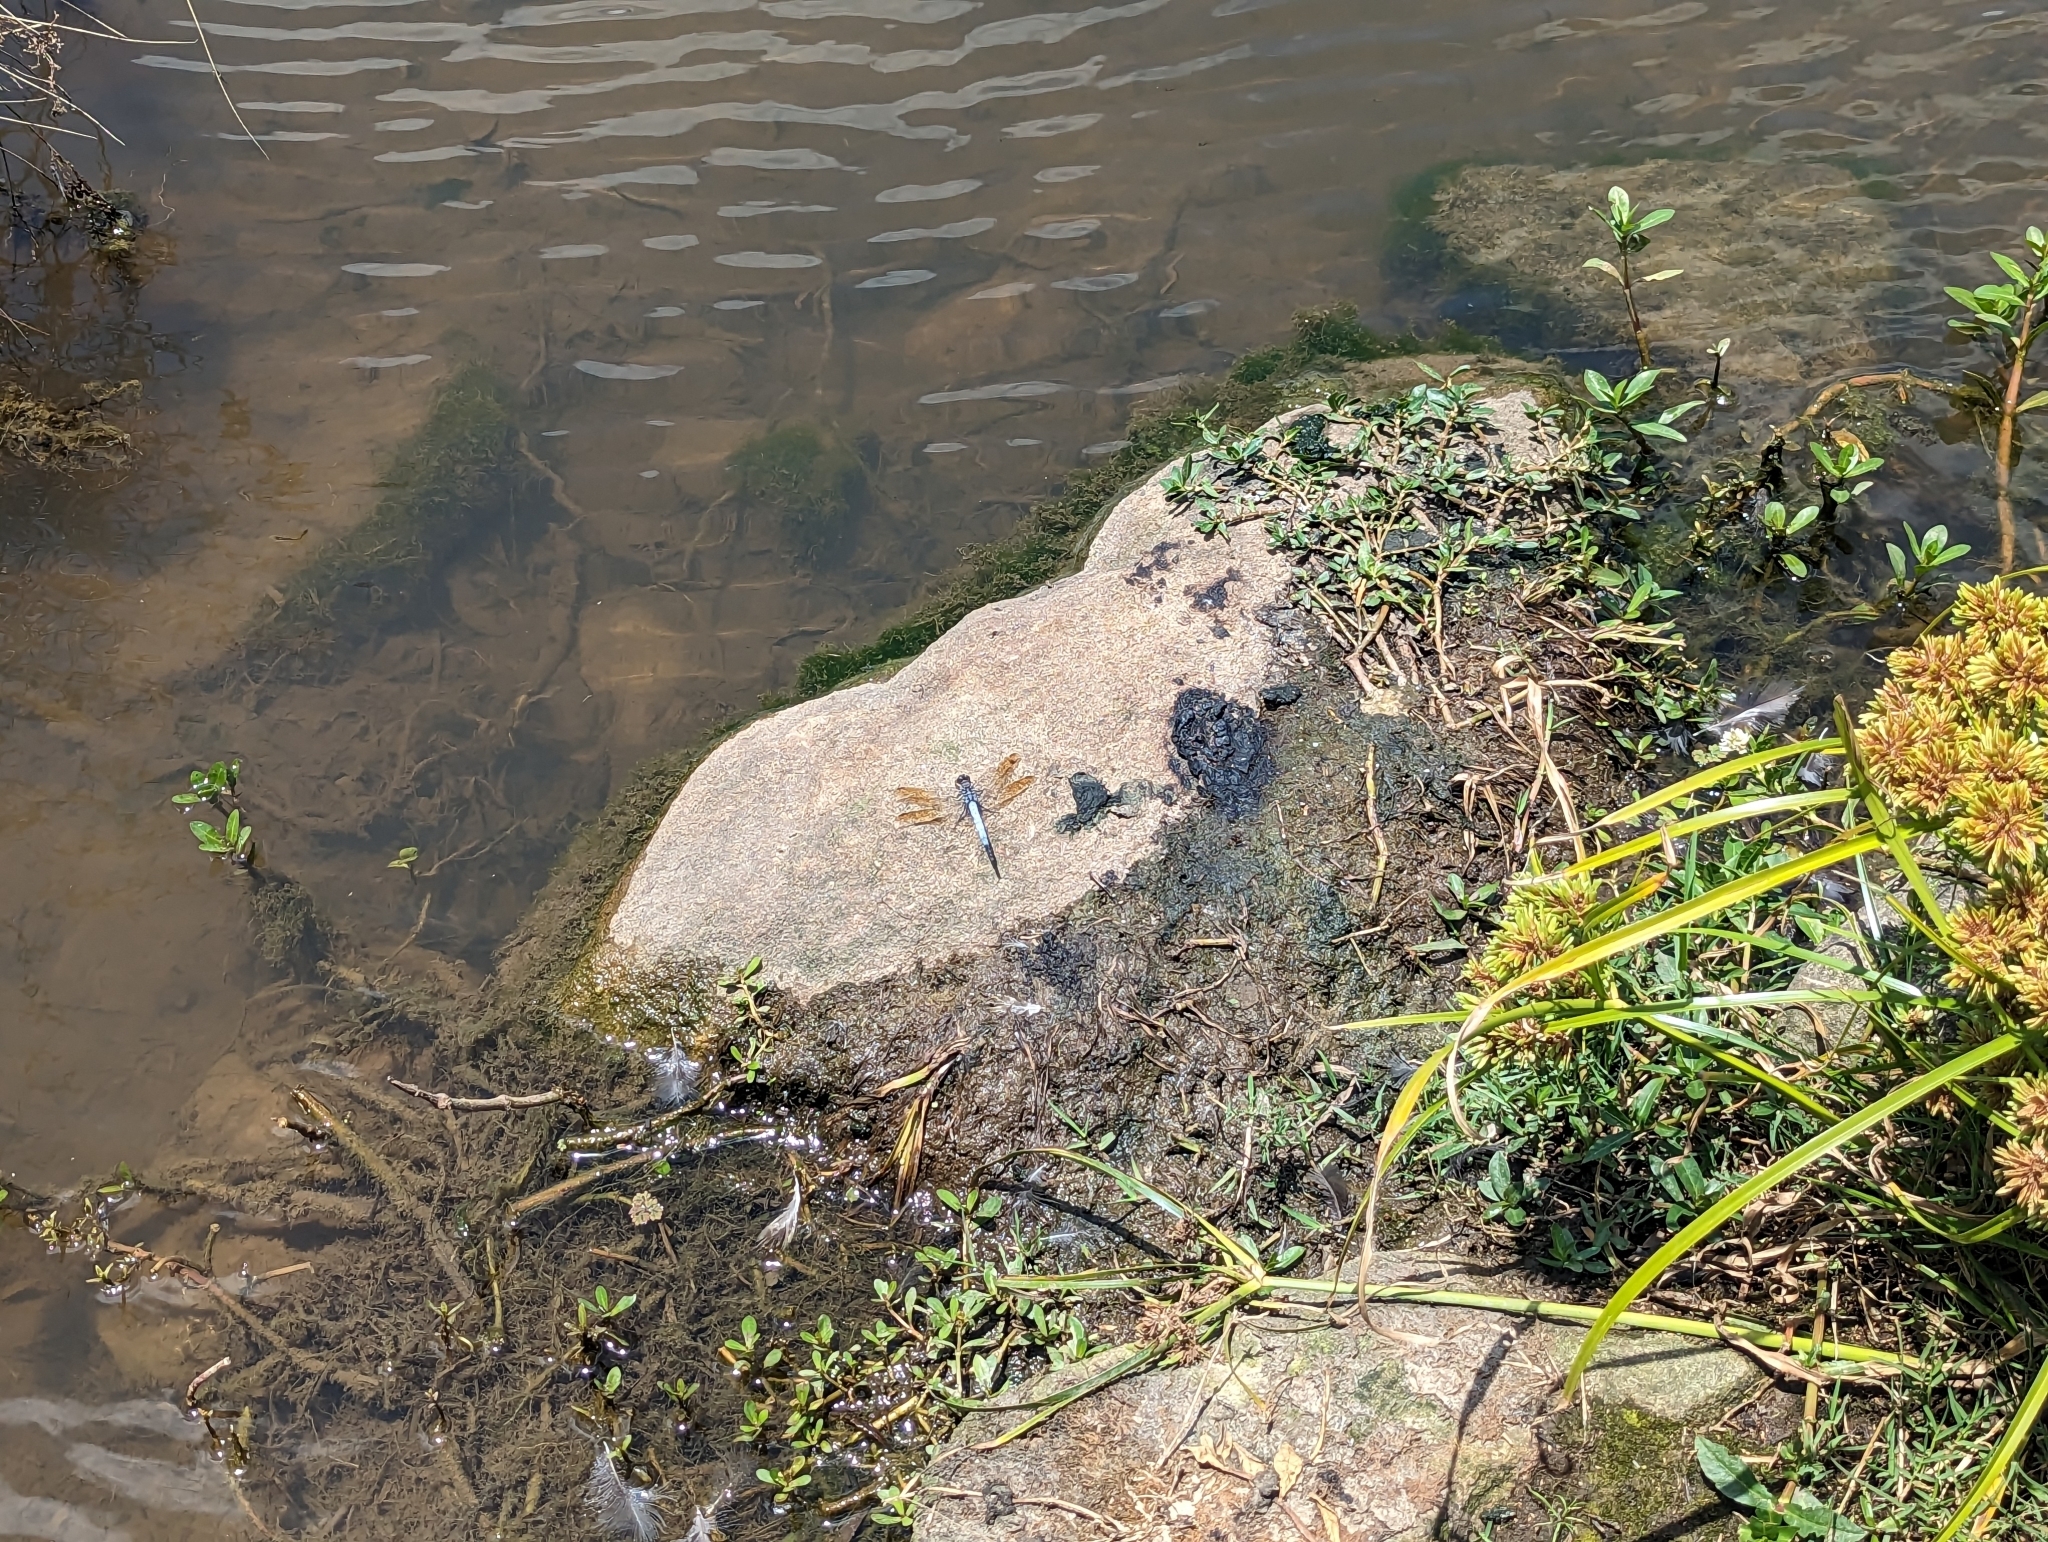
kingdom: Animalia
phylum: Arthropoda
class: Insecta
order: Odonata
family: Libellulidae
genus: Orthetrum
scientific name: Orthetrum caledonicum
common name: Blue skimmer
